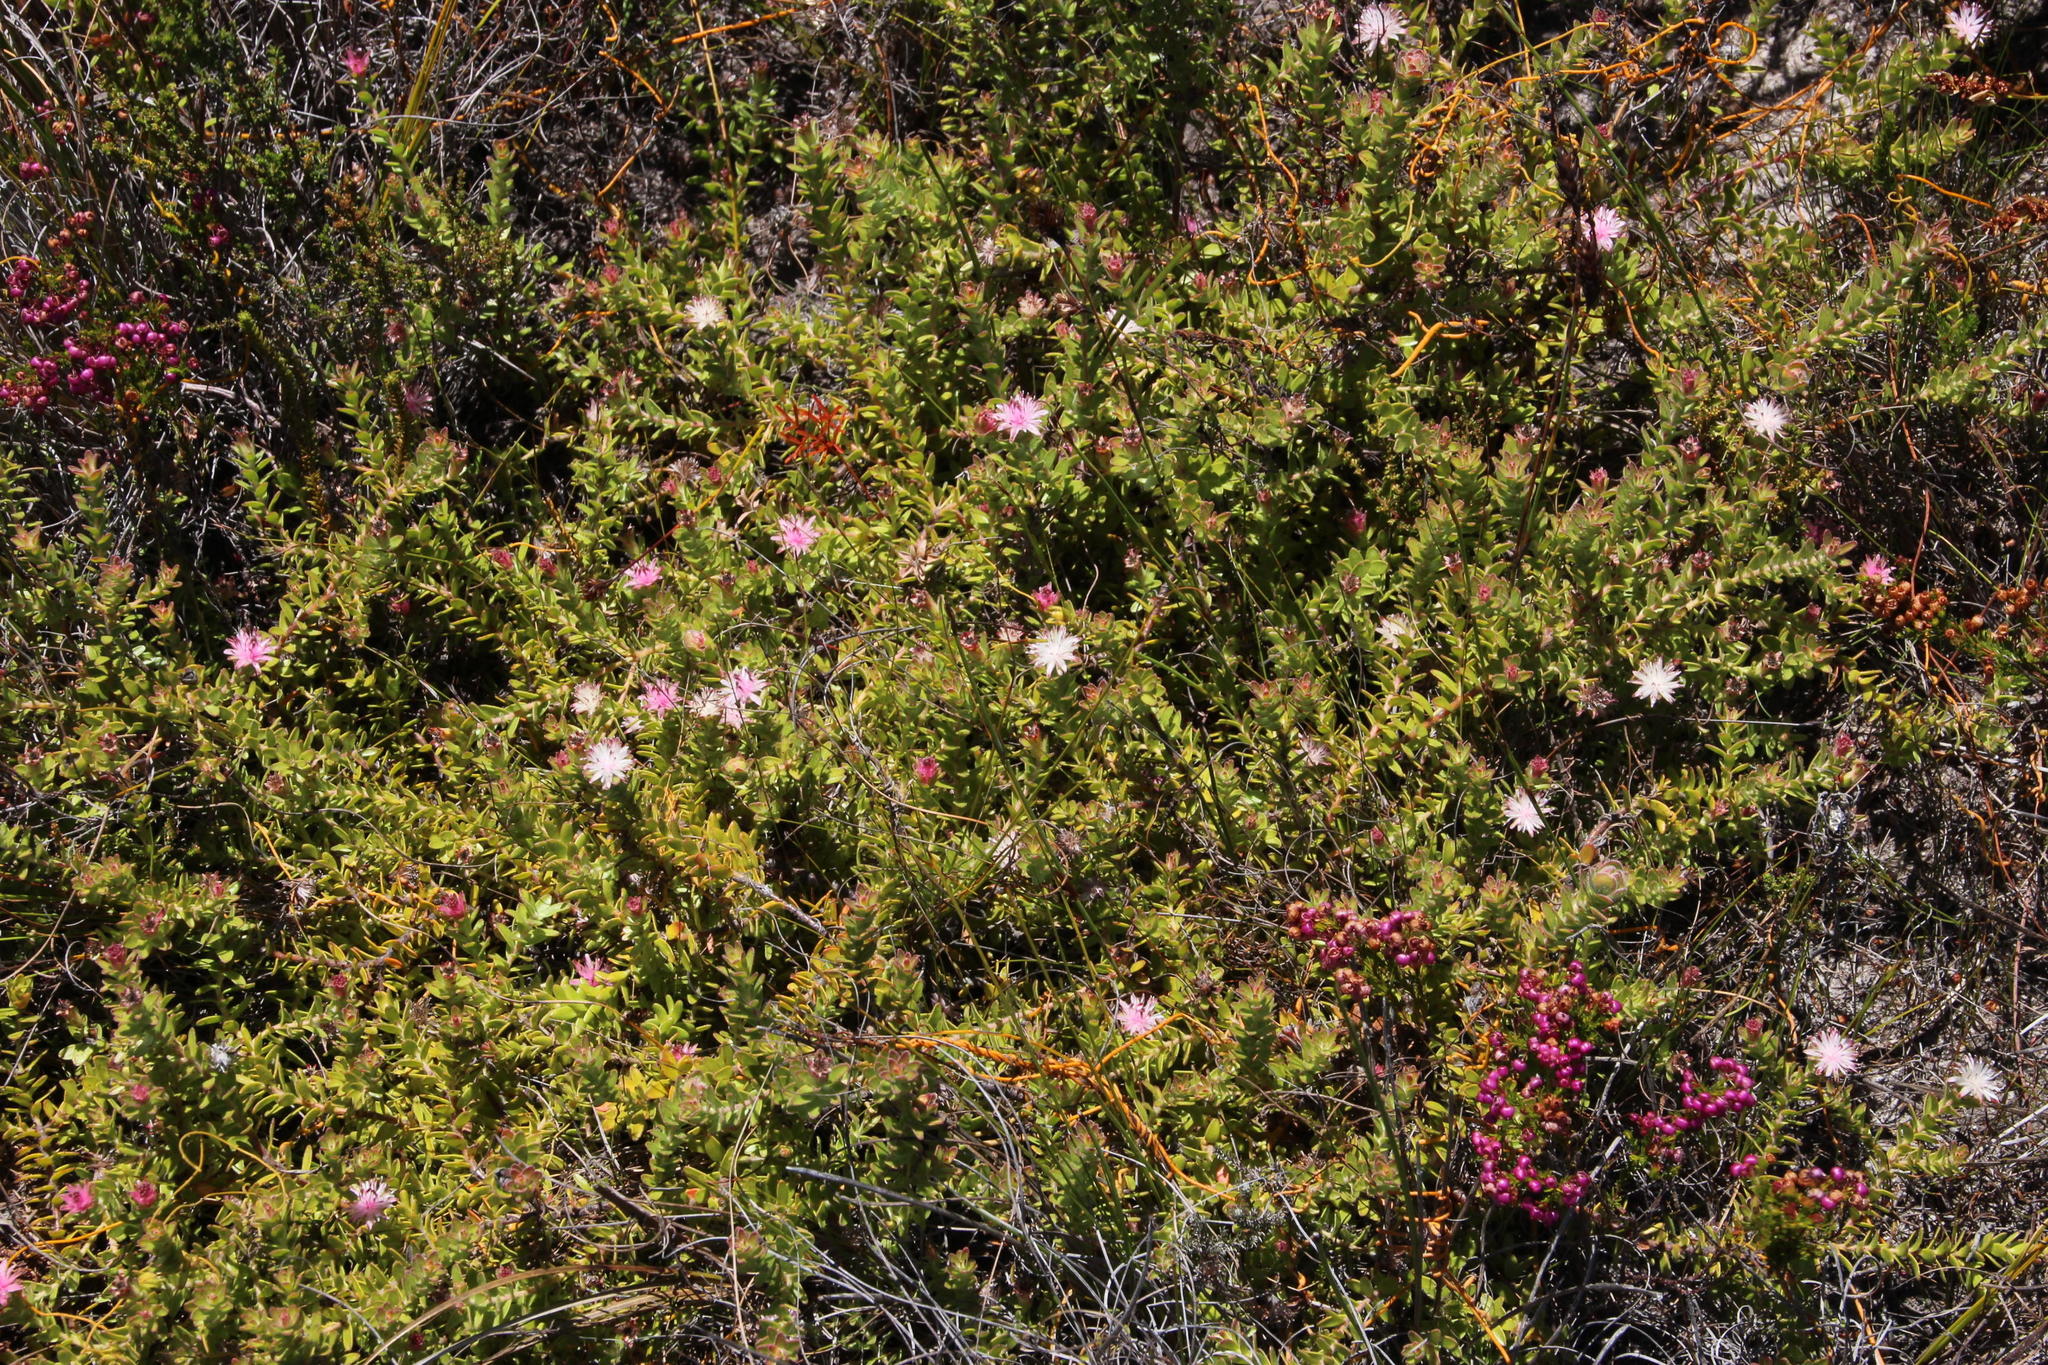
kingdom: Plantae
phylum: Tracheophyta
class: Magnoliopsida
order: Proteales
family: Proteaceae
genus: Diastella
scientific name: Diastella divaricata
